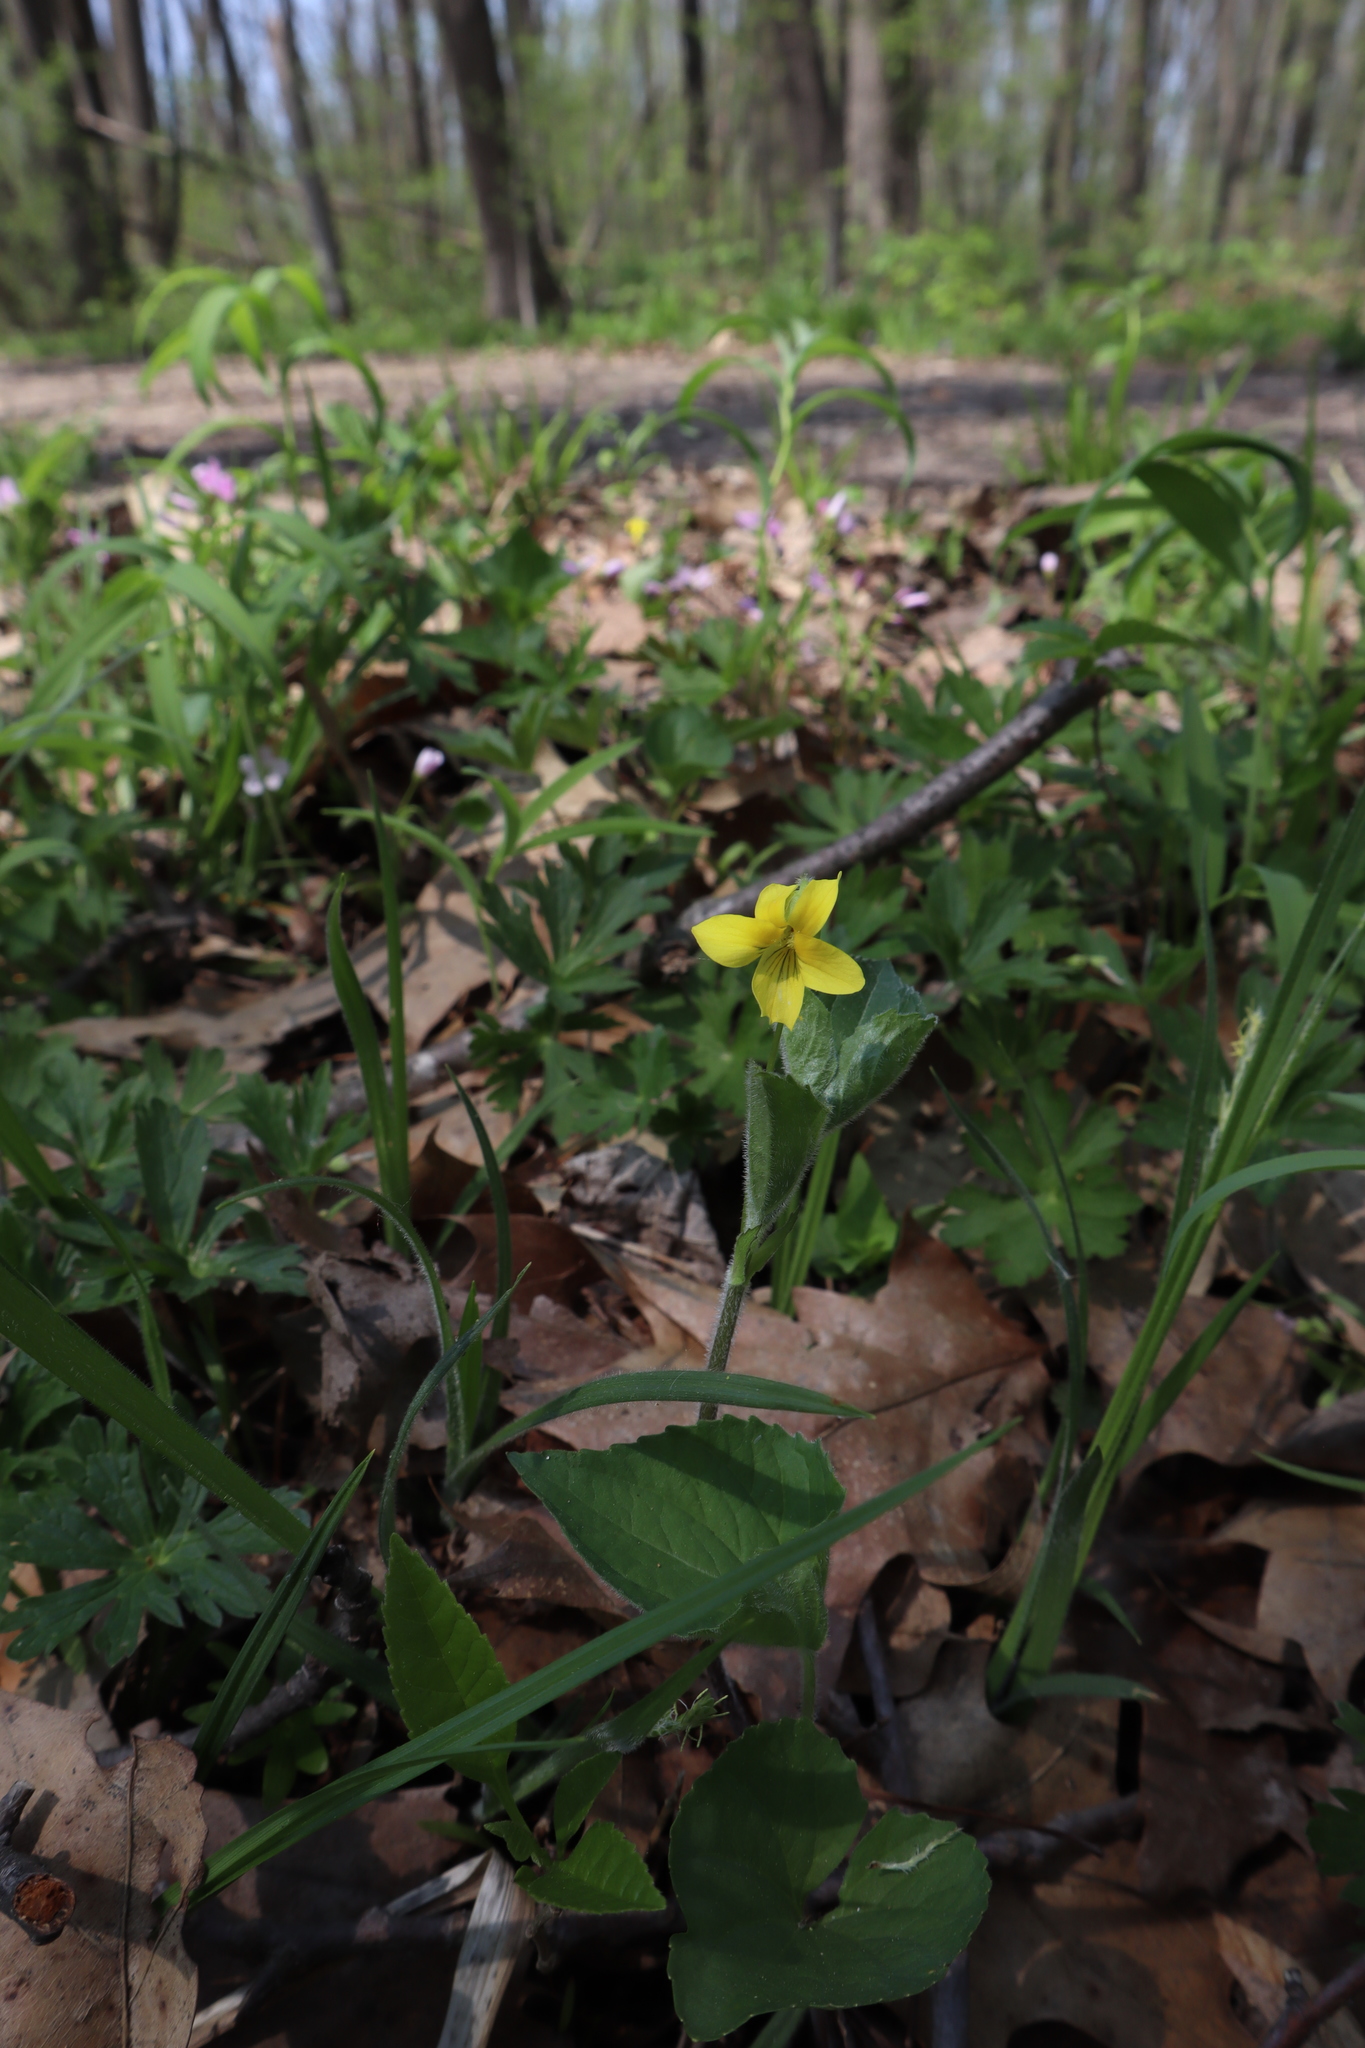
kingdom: Plantae
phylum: Tracheophyta
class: Magnoliopsida
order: Malpighiales
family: Violaceae
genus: Viola
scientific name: Viola eriocarpa
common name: Smooth yellow violet
